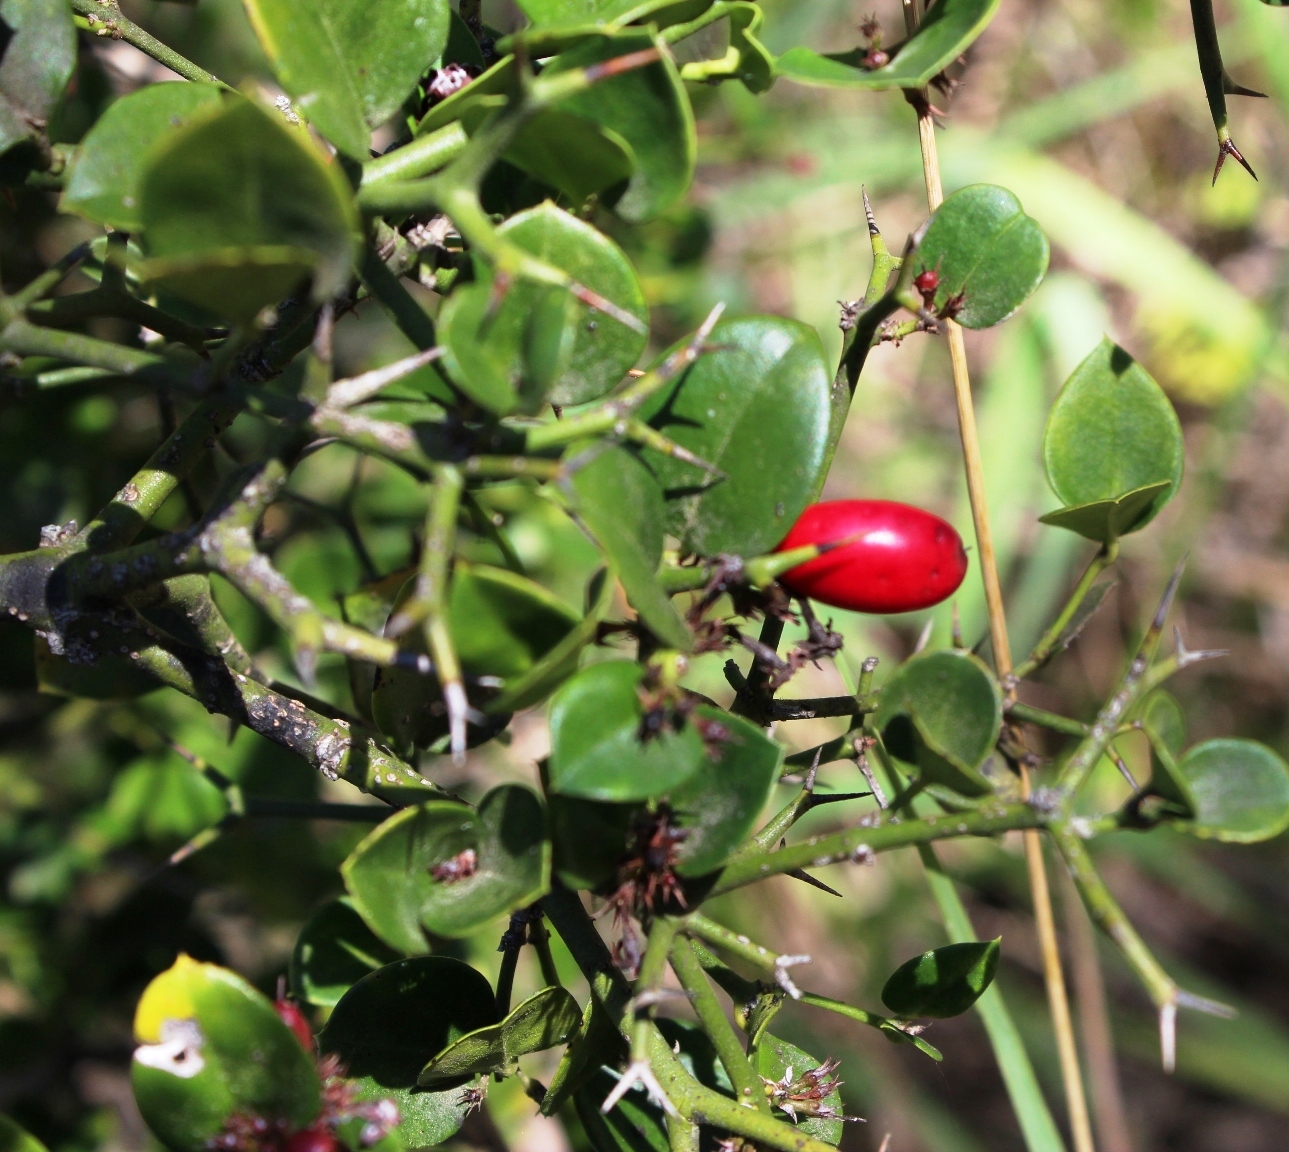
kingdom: Plantae
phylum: Tracheophyta
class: Magnoliopsida
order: Gentianales
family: Apocynaceae
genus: Carissa
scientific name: Carissa bispinosa
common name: Forest num-num
